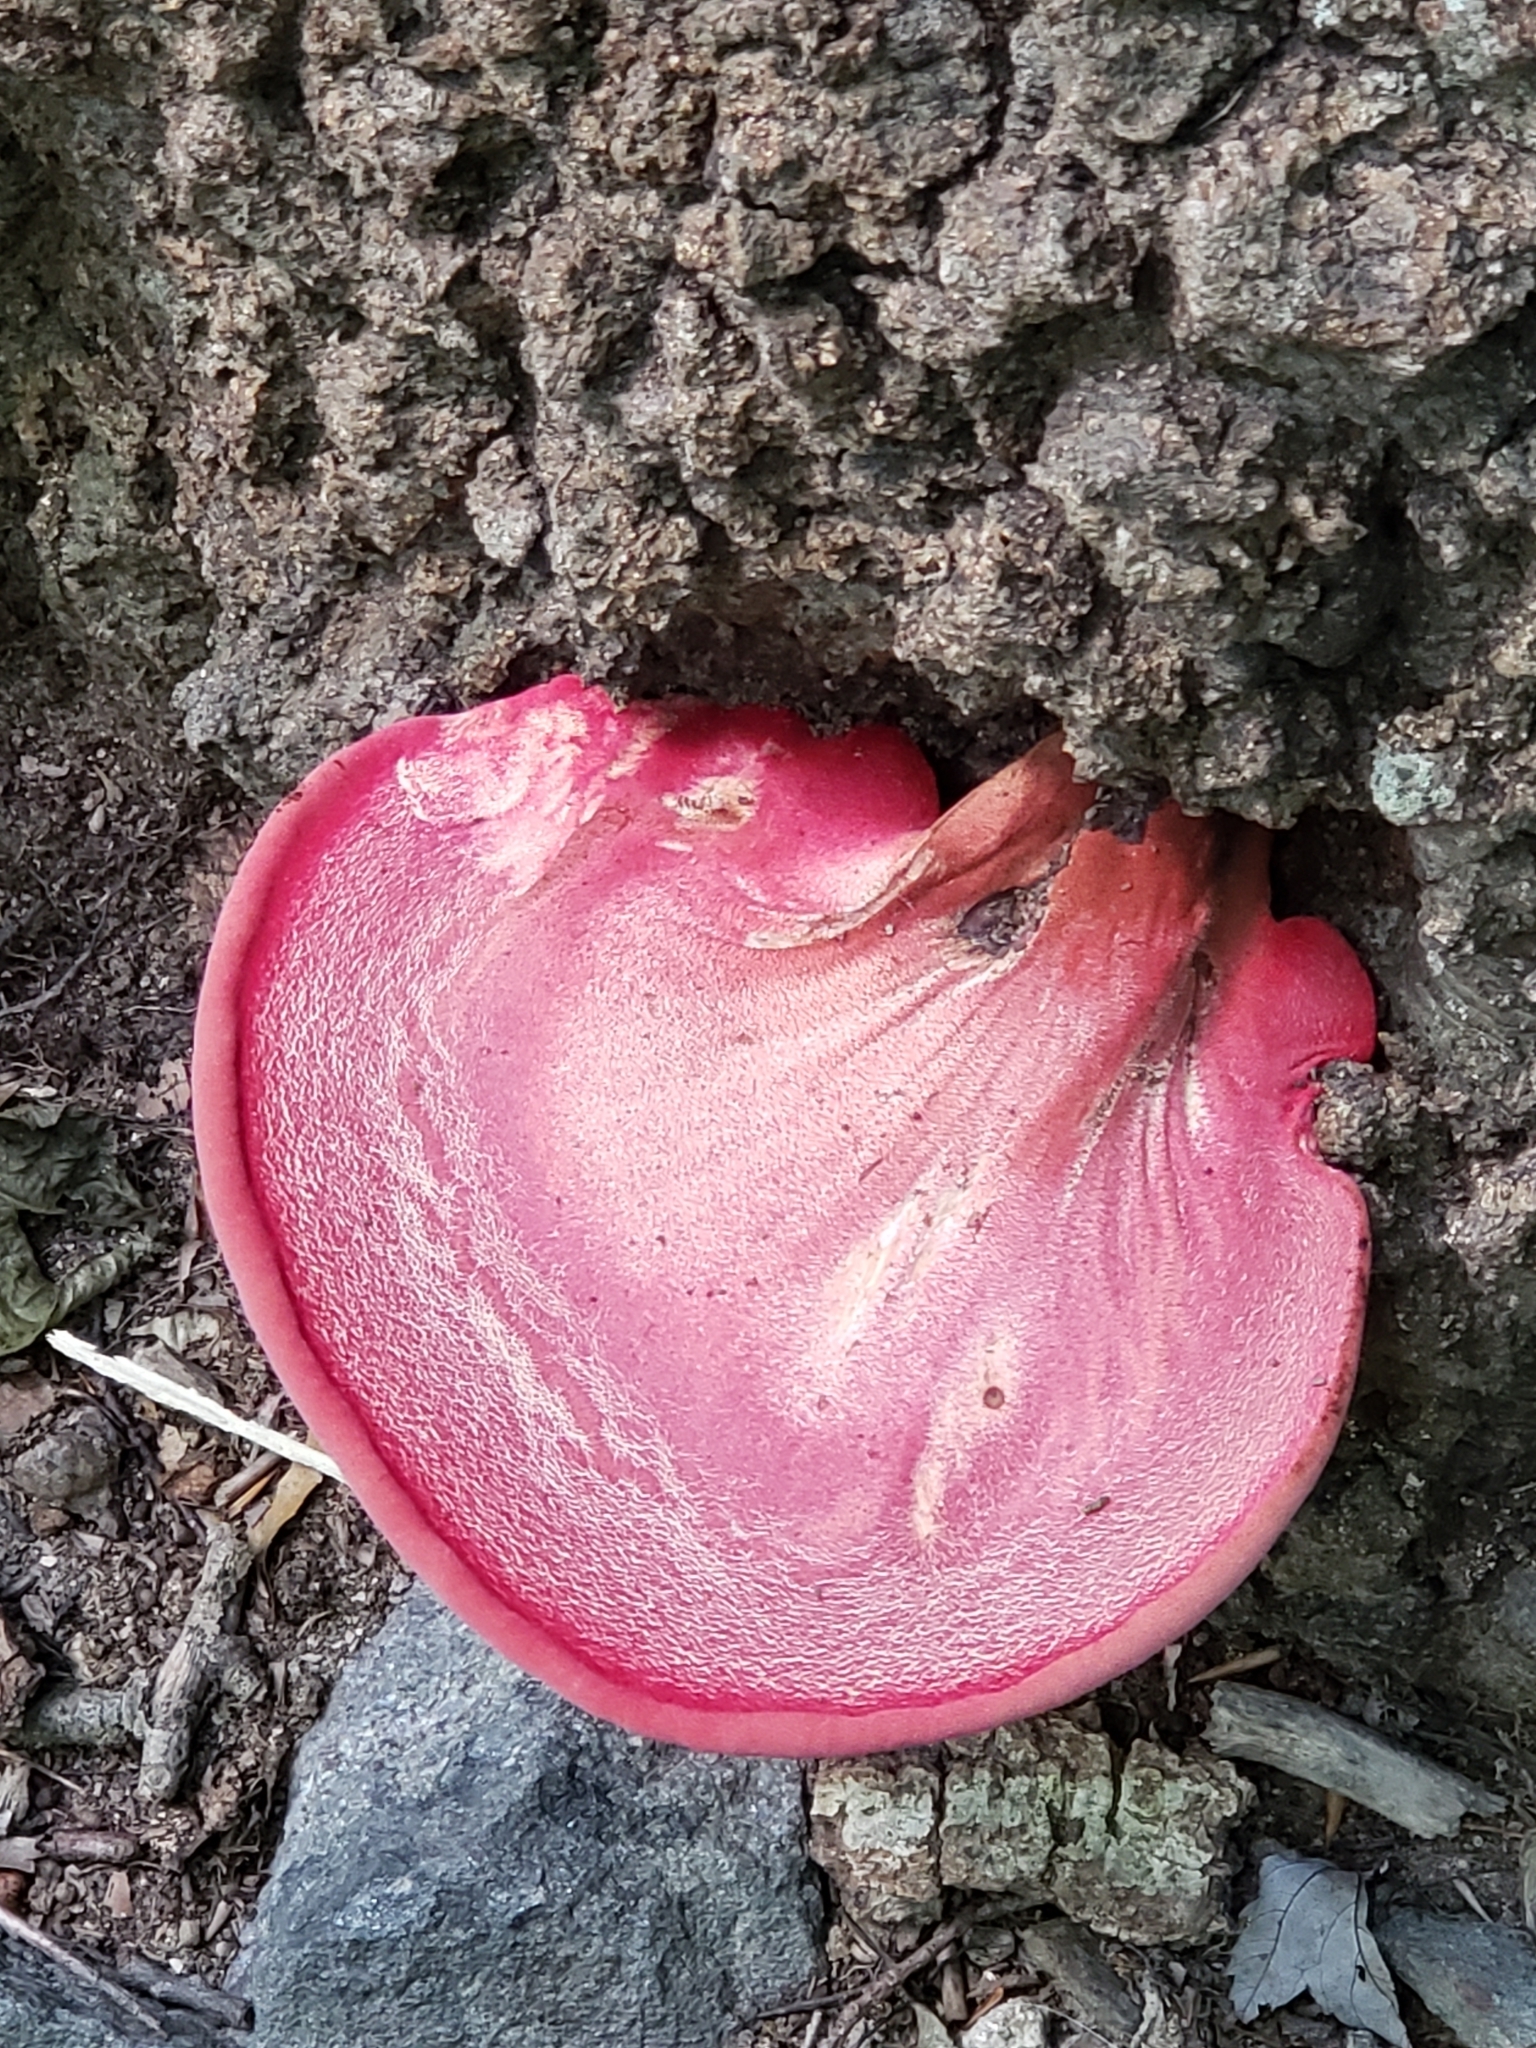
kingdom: Fungi
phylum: Basidiomycota
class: Agaricomycetes
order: Agaricales
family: Fistulinaceae
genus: Fistulina
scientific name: Fistulina hepatica
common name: Beef-steak fungus
